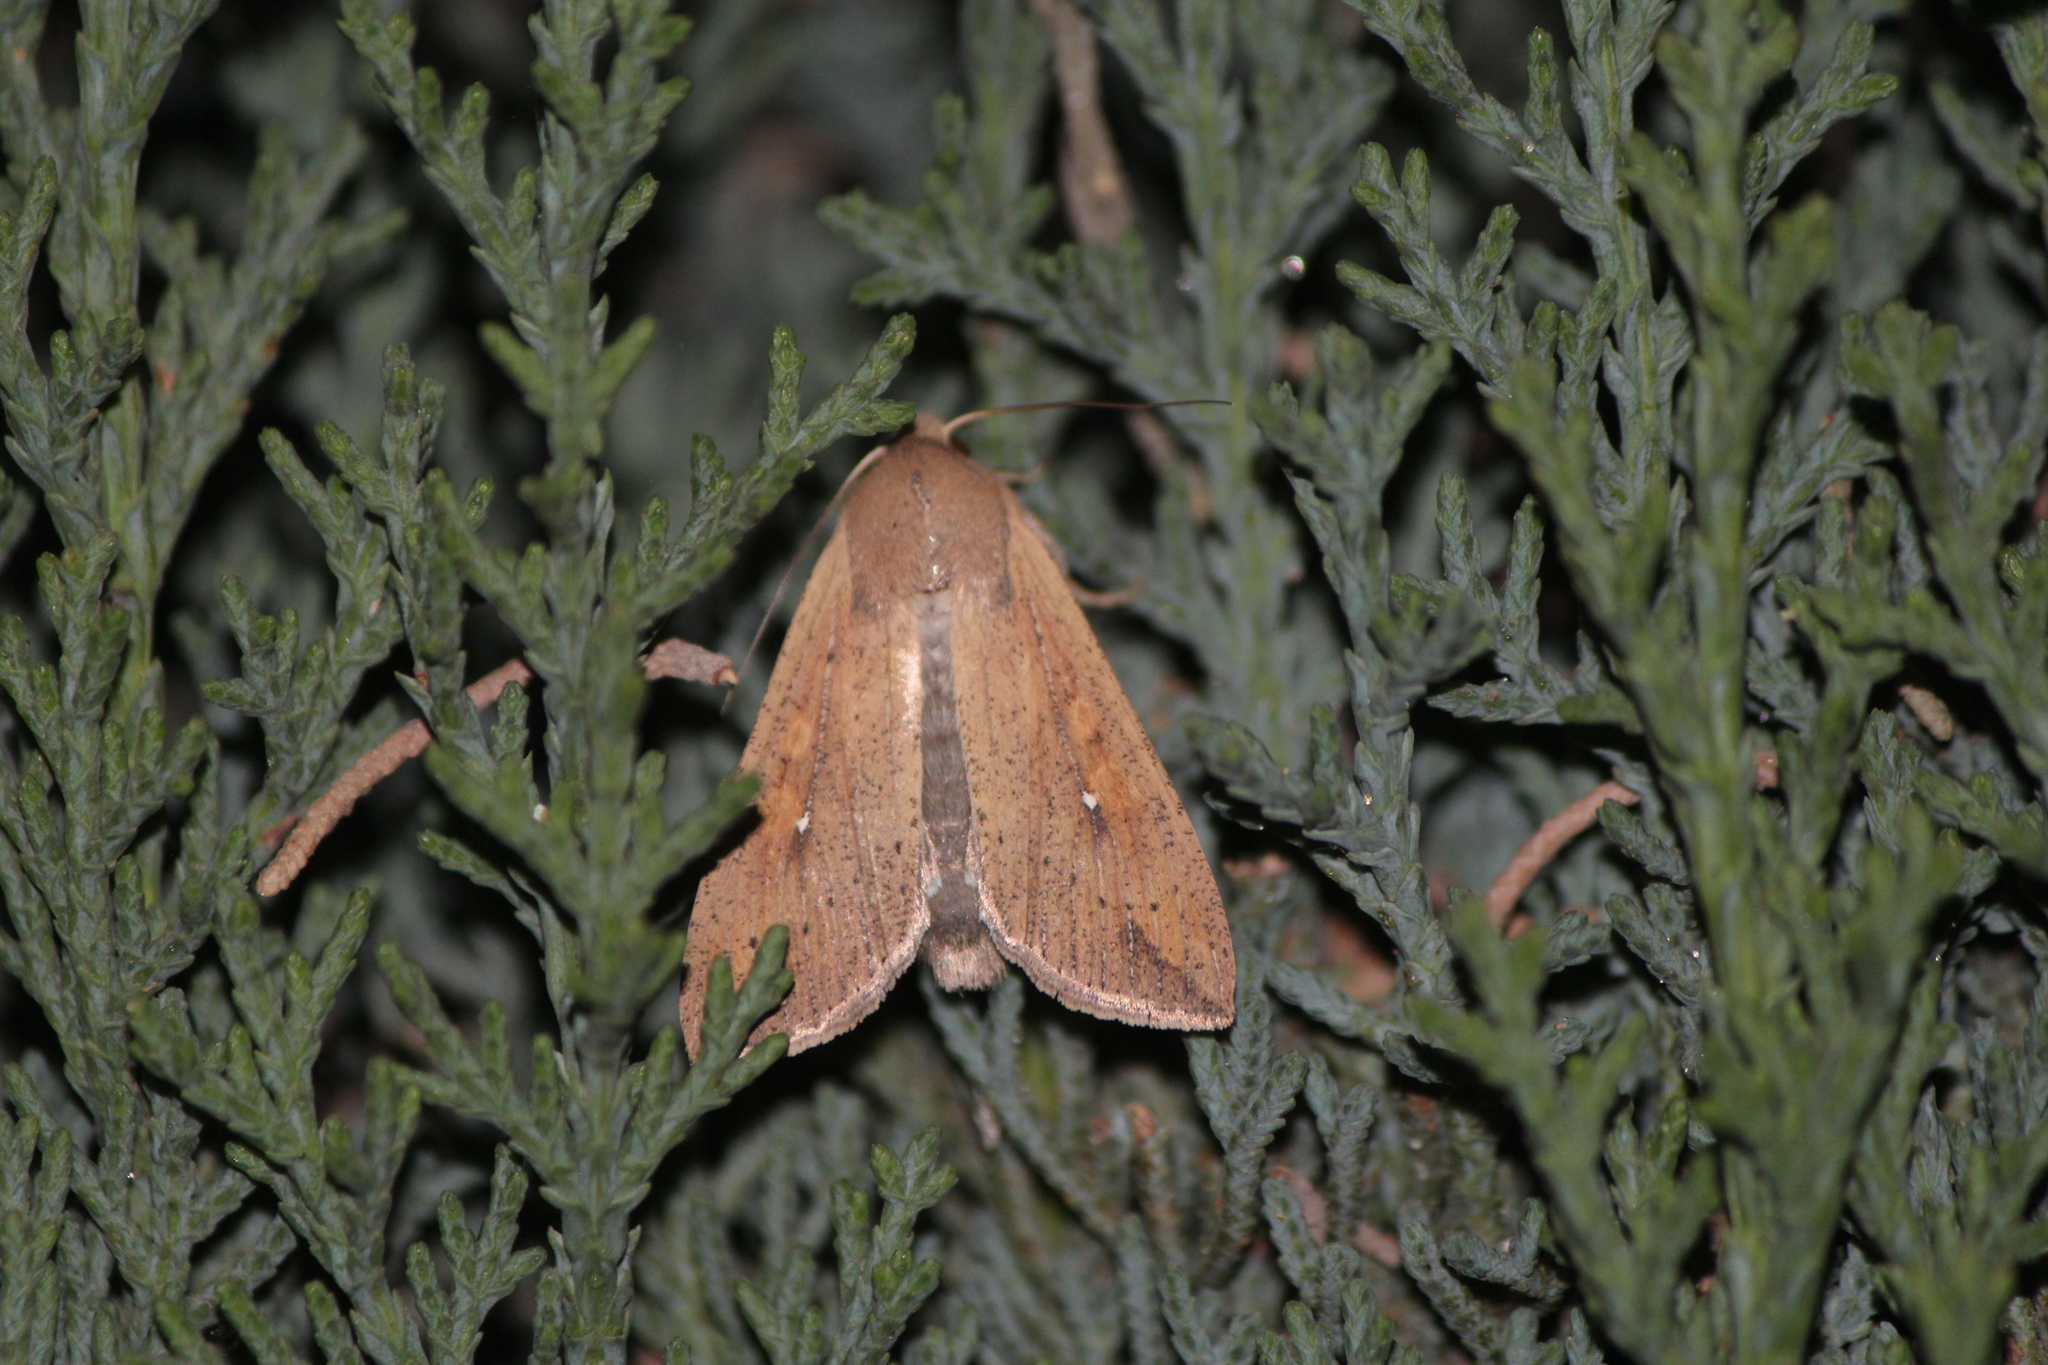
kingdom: Animalia
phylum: Arthropoda
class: Insecta
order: Lepidoptera
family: Noctuidae
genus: Mythimna
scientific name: Mythimna unipuncta
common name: White-speck
